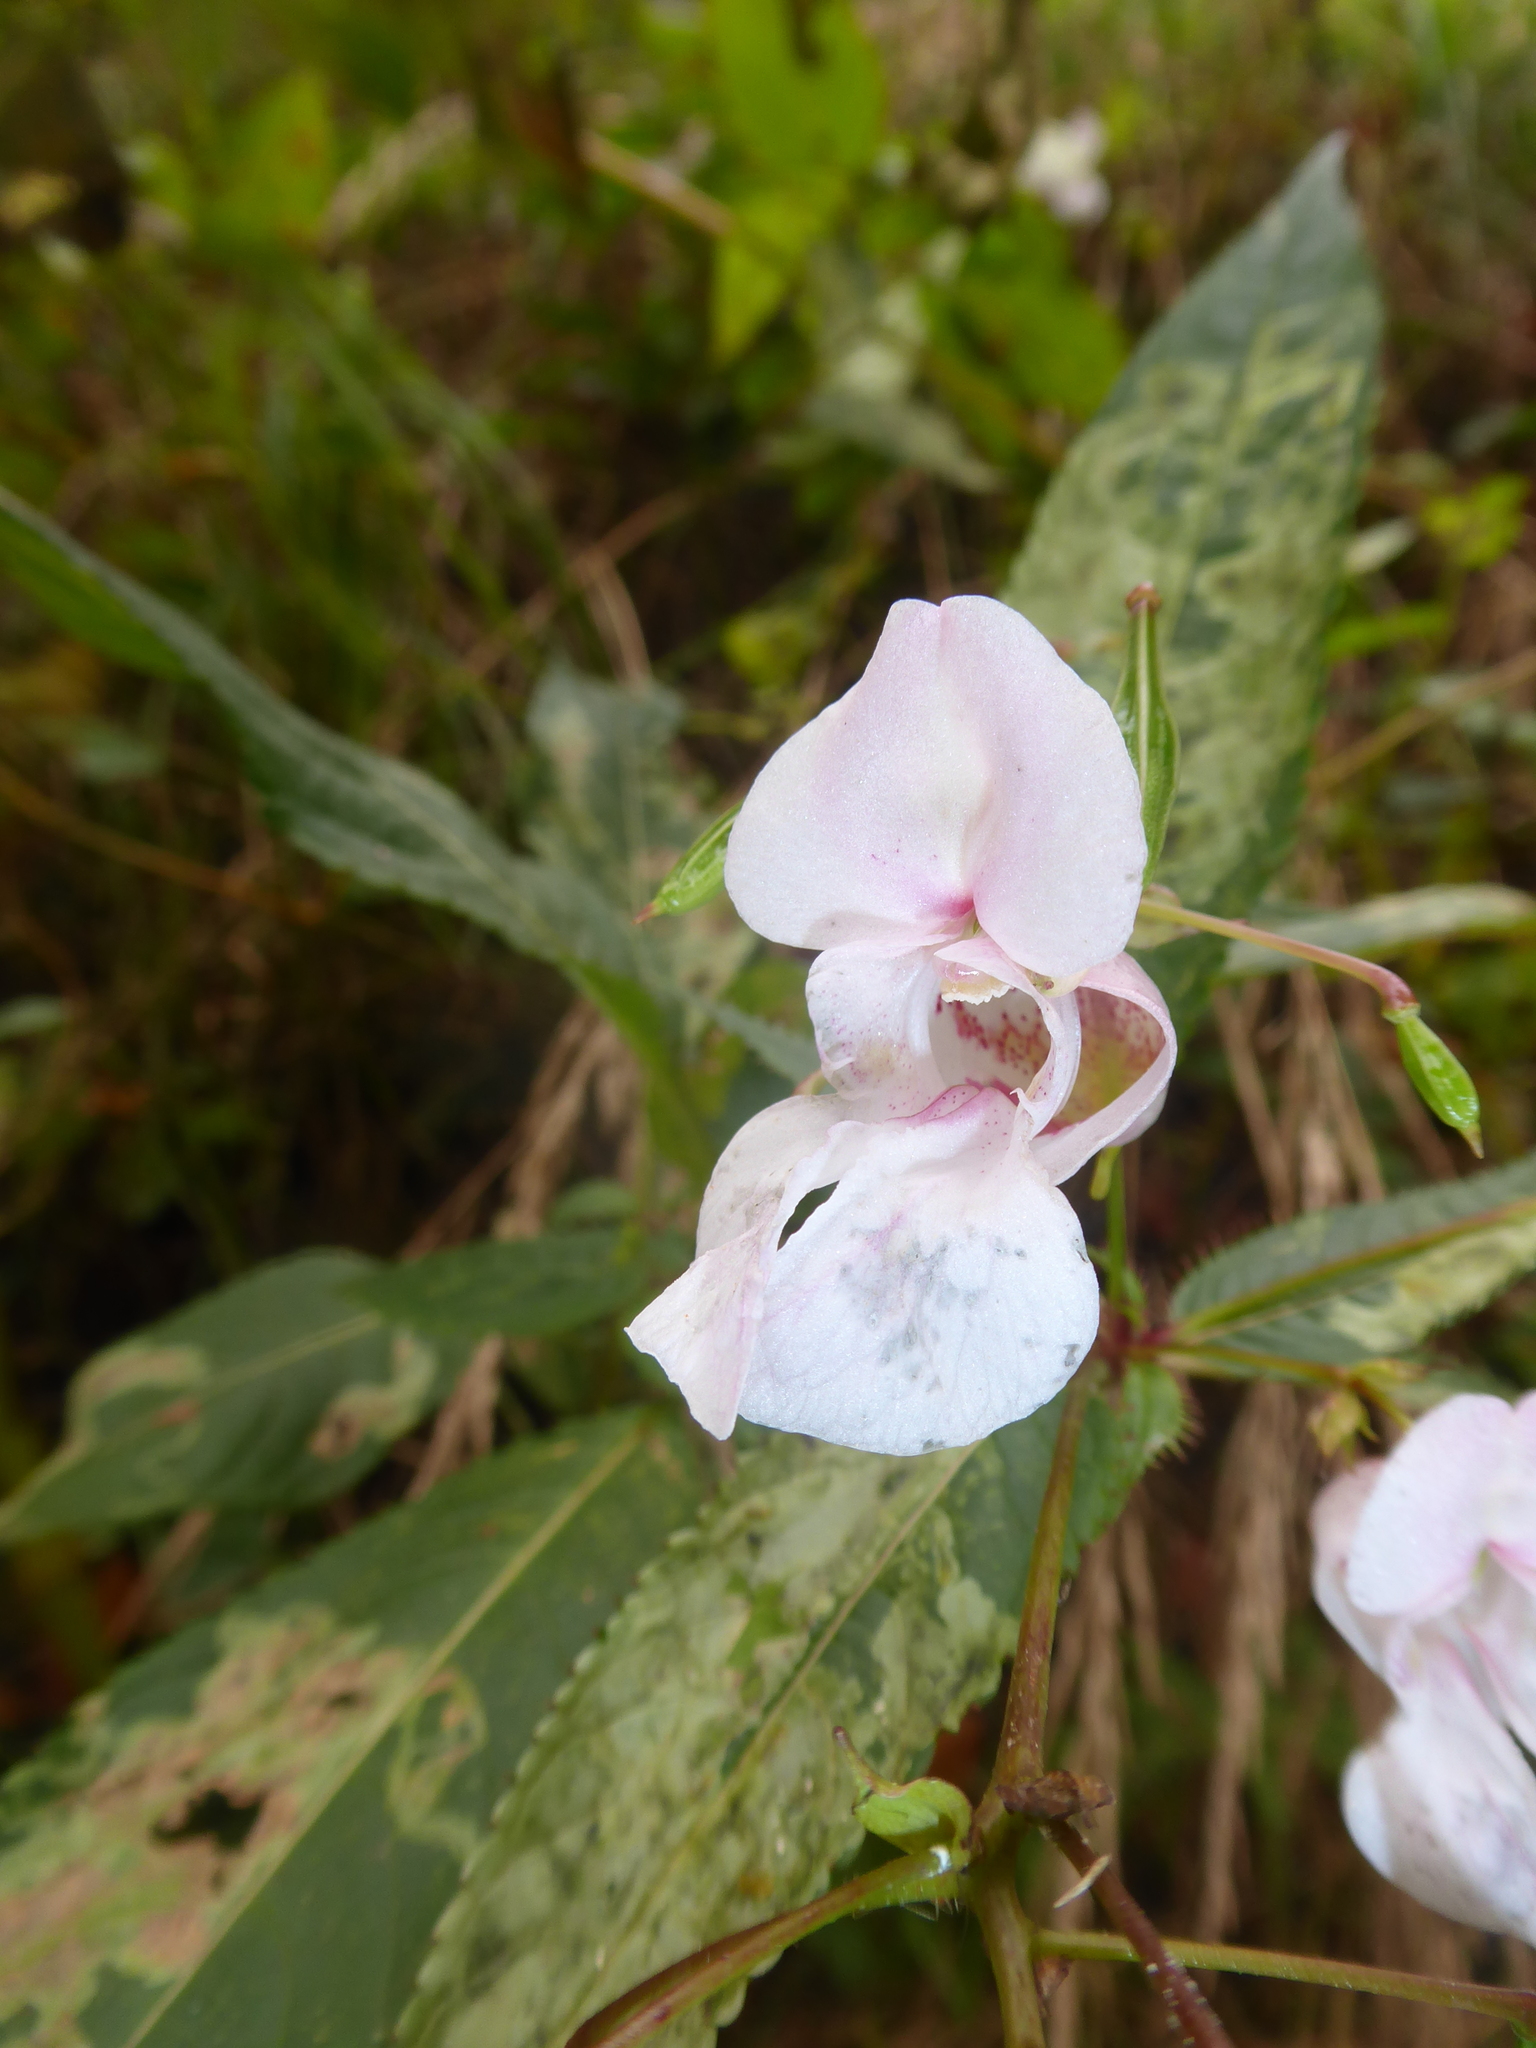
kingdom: Plantae
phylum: Tracheophyta
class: Magnoliopsida
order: Ericales
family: Balsaminaceae
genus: Impatiens
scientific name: Impatiens glandulifera
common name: Himalayan balsam
